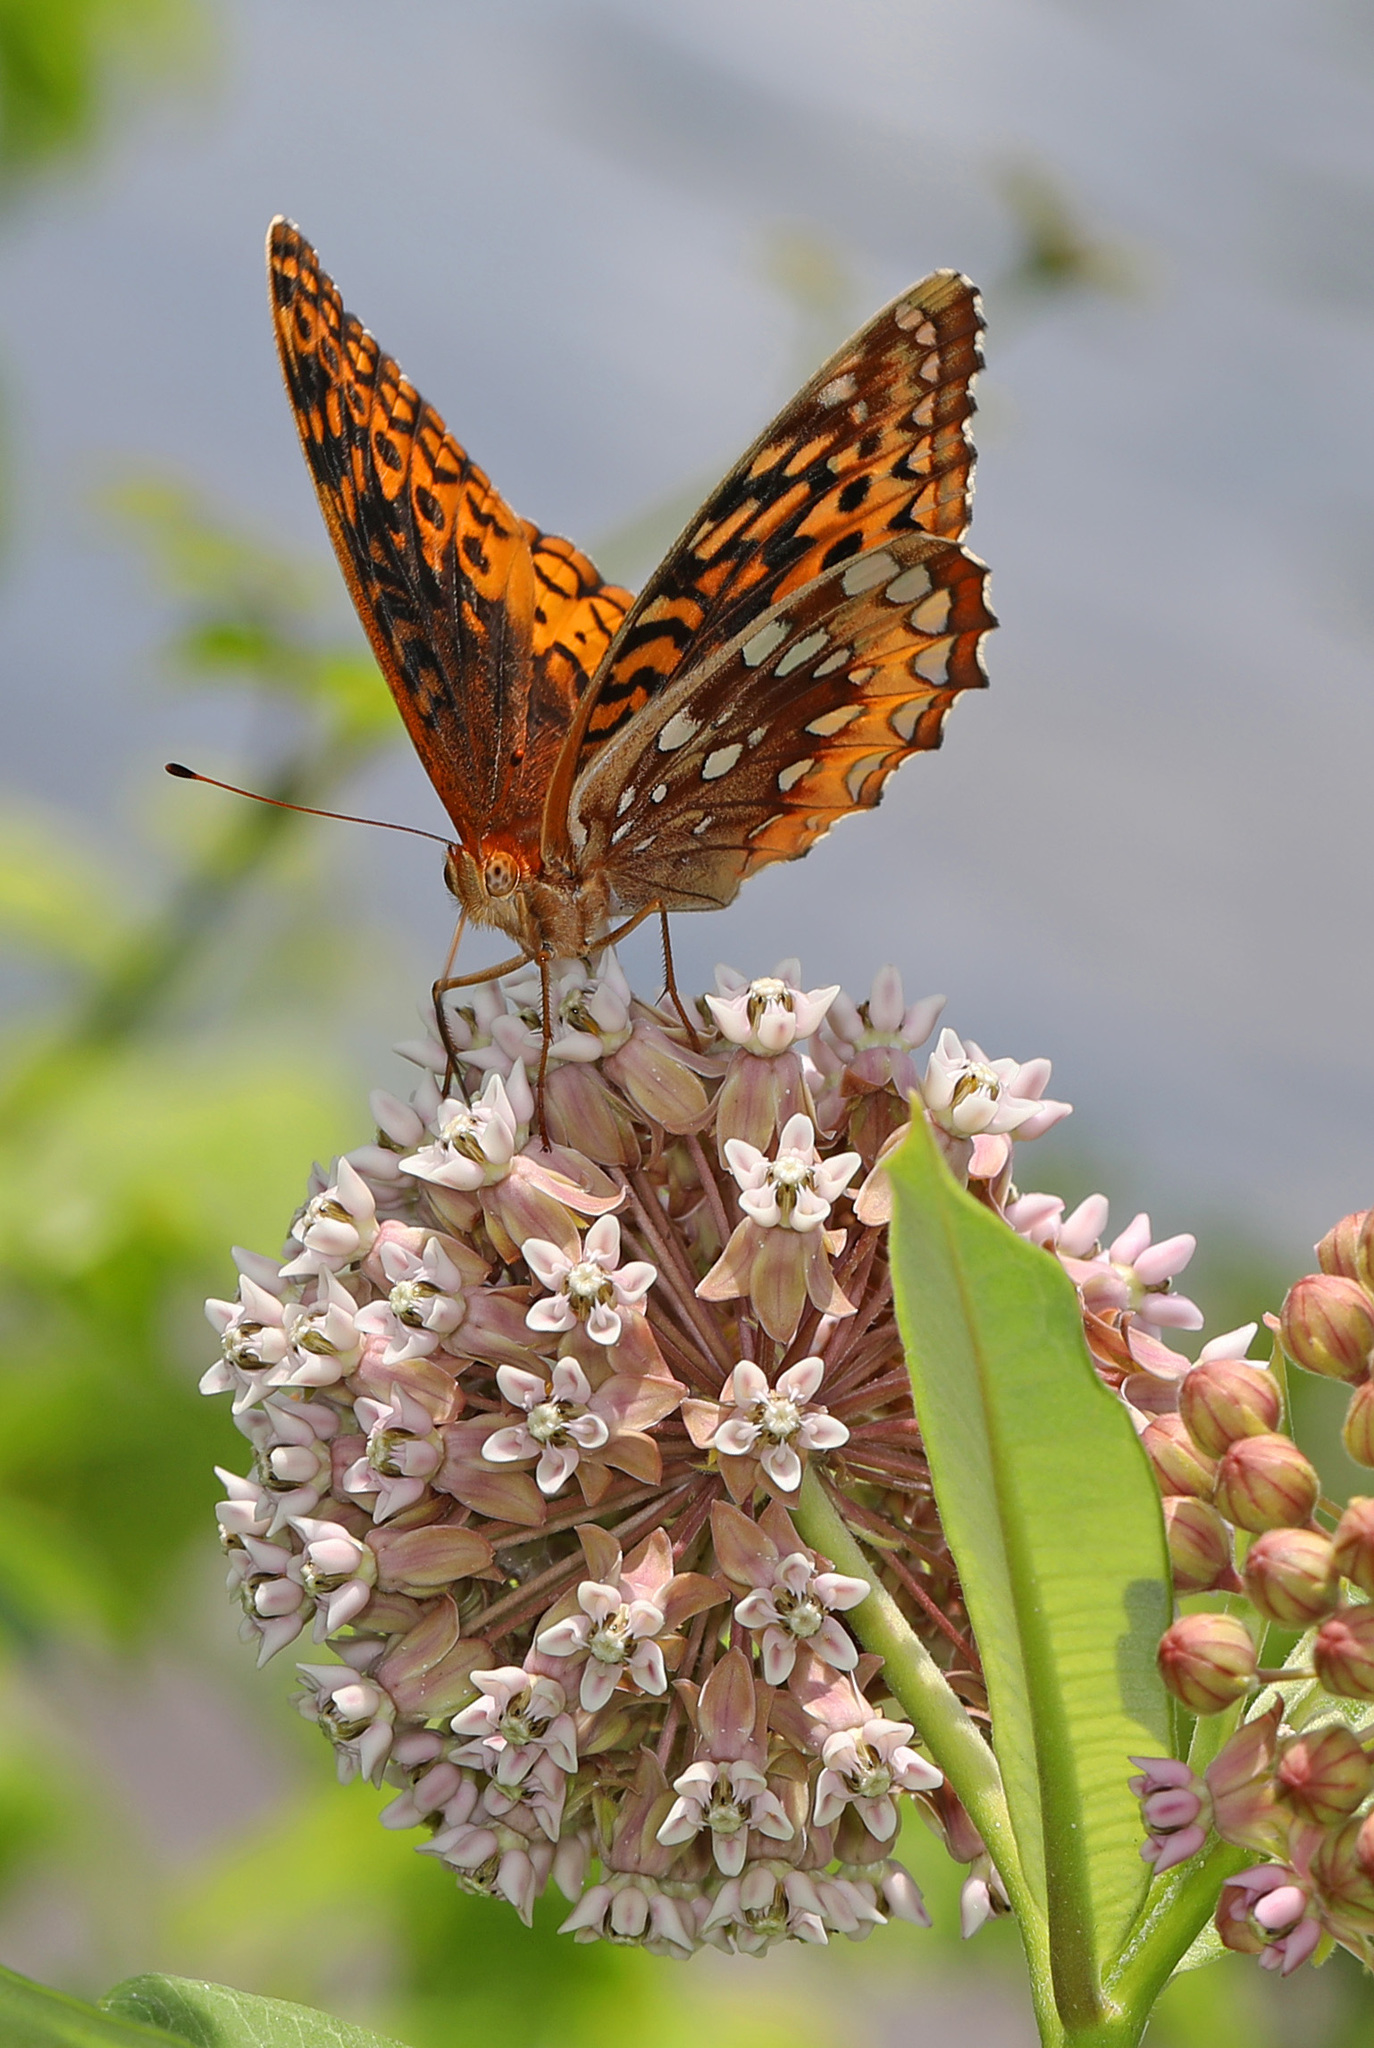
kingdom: Animalia
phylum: Arthropoda
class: Insecta
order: Lepidoptera
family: Nymphalidae
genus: Speyeria
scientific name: Speyeria cybele
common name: Great spangled fritillary
